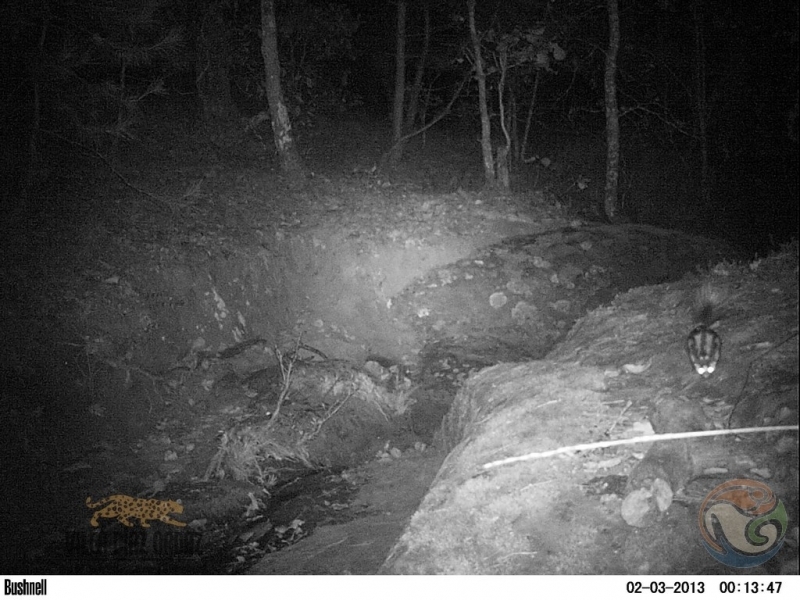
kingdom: Animalia
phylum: Chordata
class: Mammalia
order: Carnivora
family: Mephitidae
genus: Spilogale
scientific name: Spilogale angustifrons
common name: Southern spotted skunk
